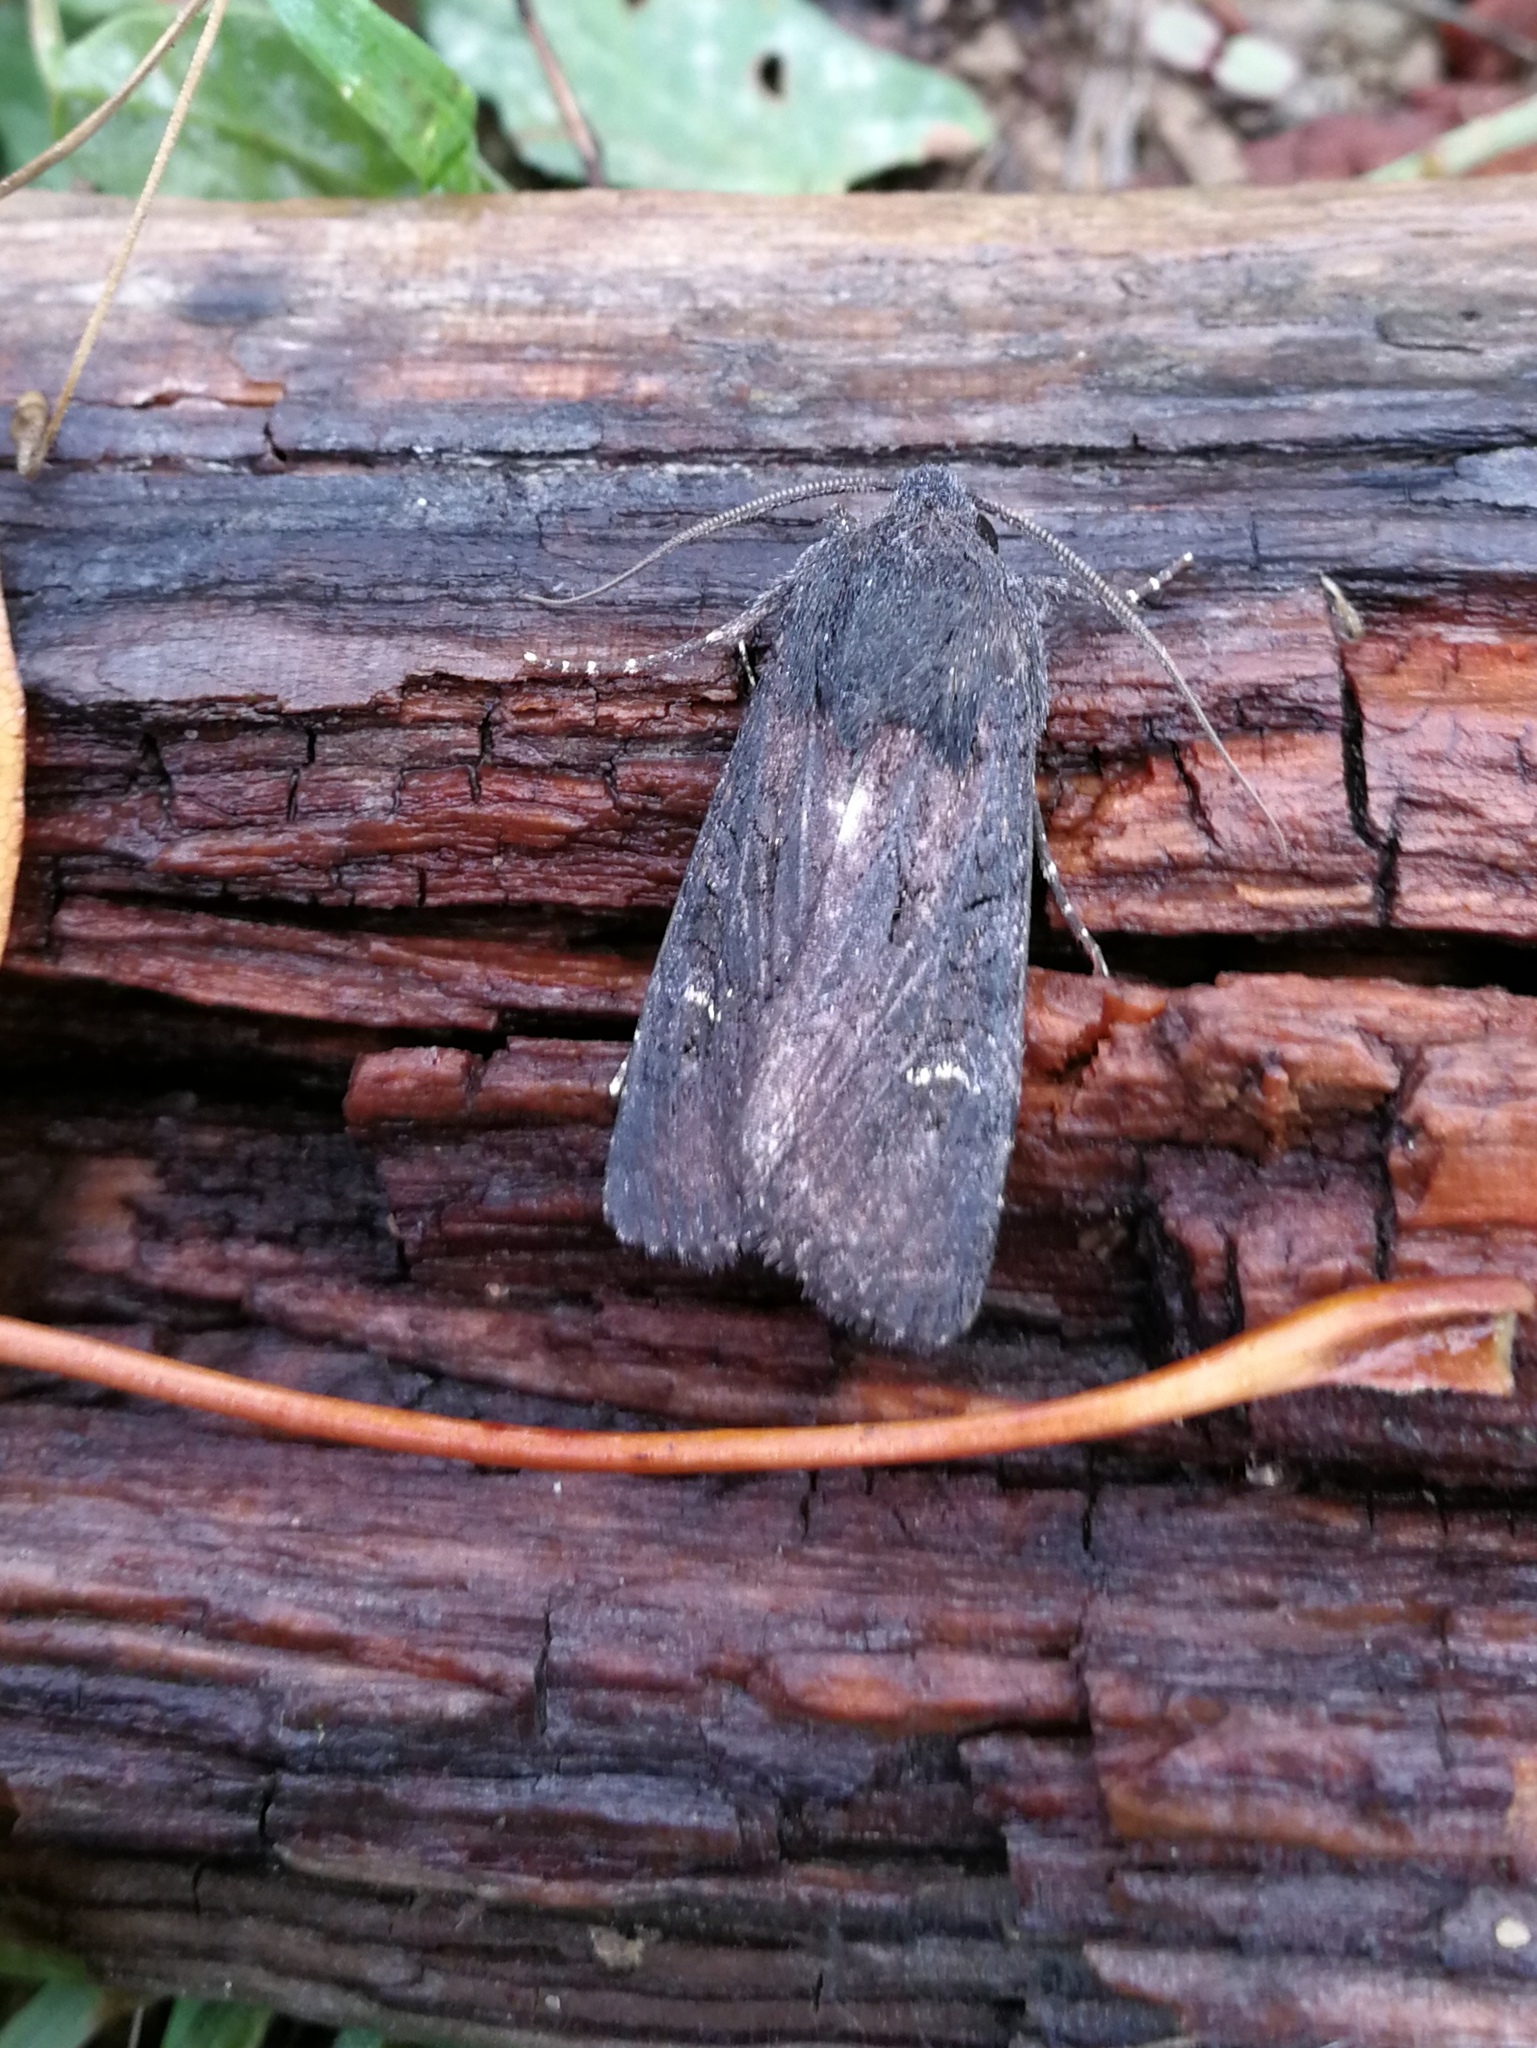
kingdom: Animalia
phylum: Arthropoda
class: Insecta
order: Lepidoptera
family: Noctuidae
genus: Aporophyla
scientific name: Aporophyla nigra
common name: Black rustic
